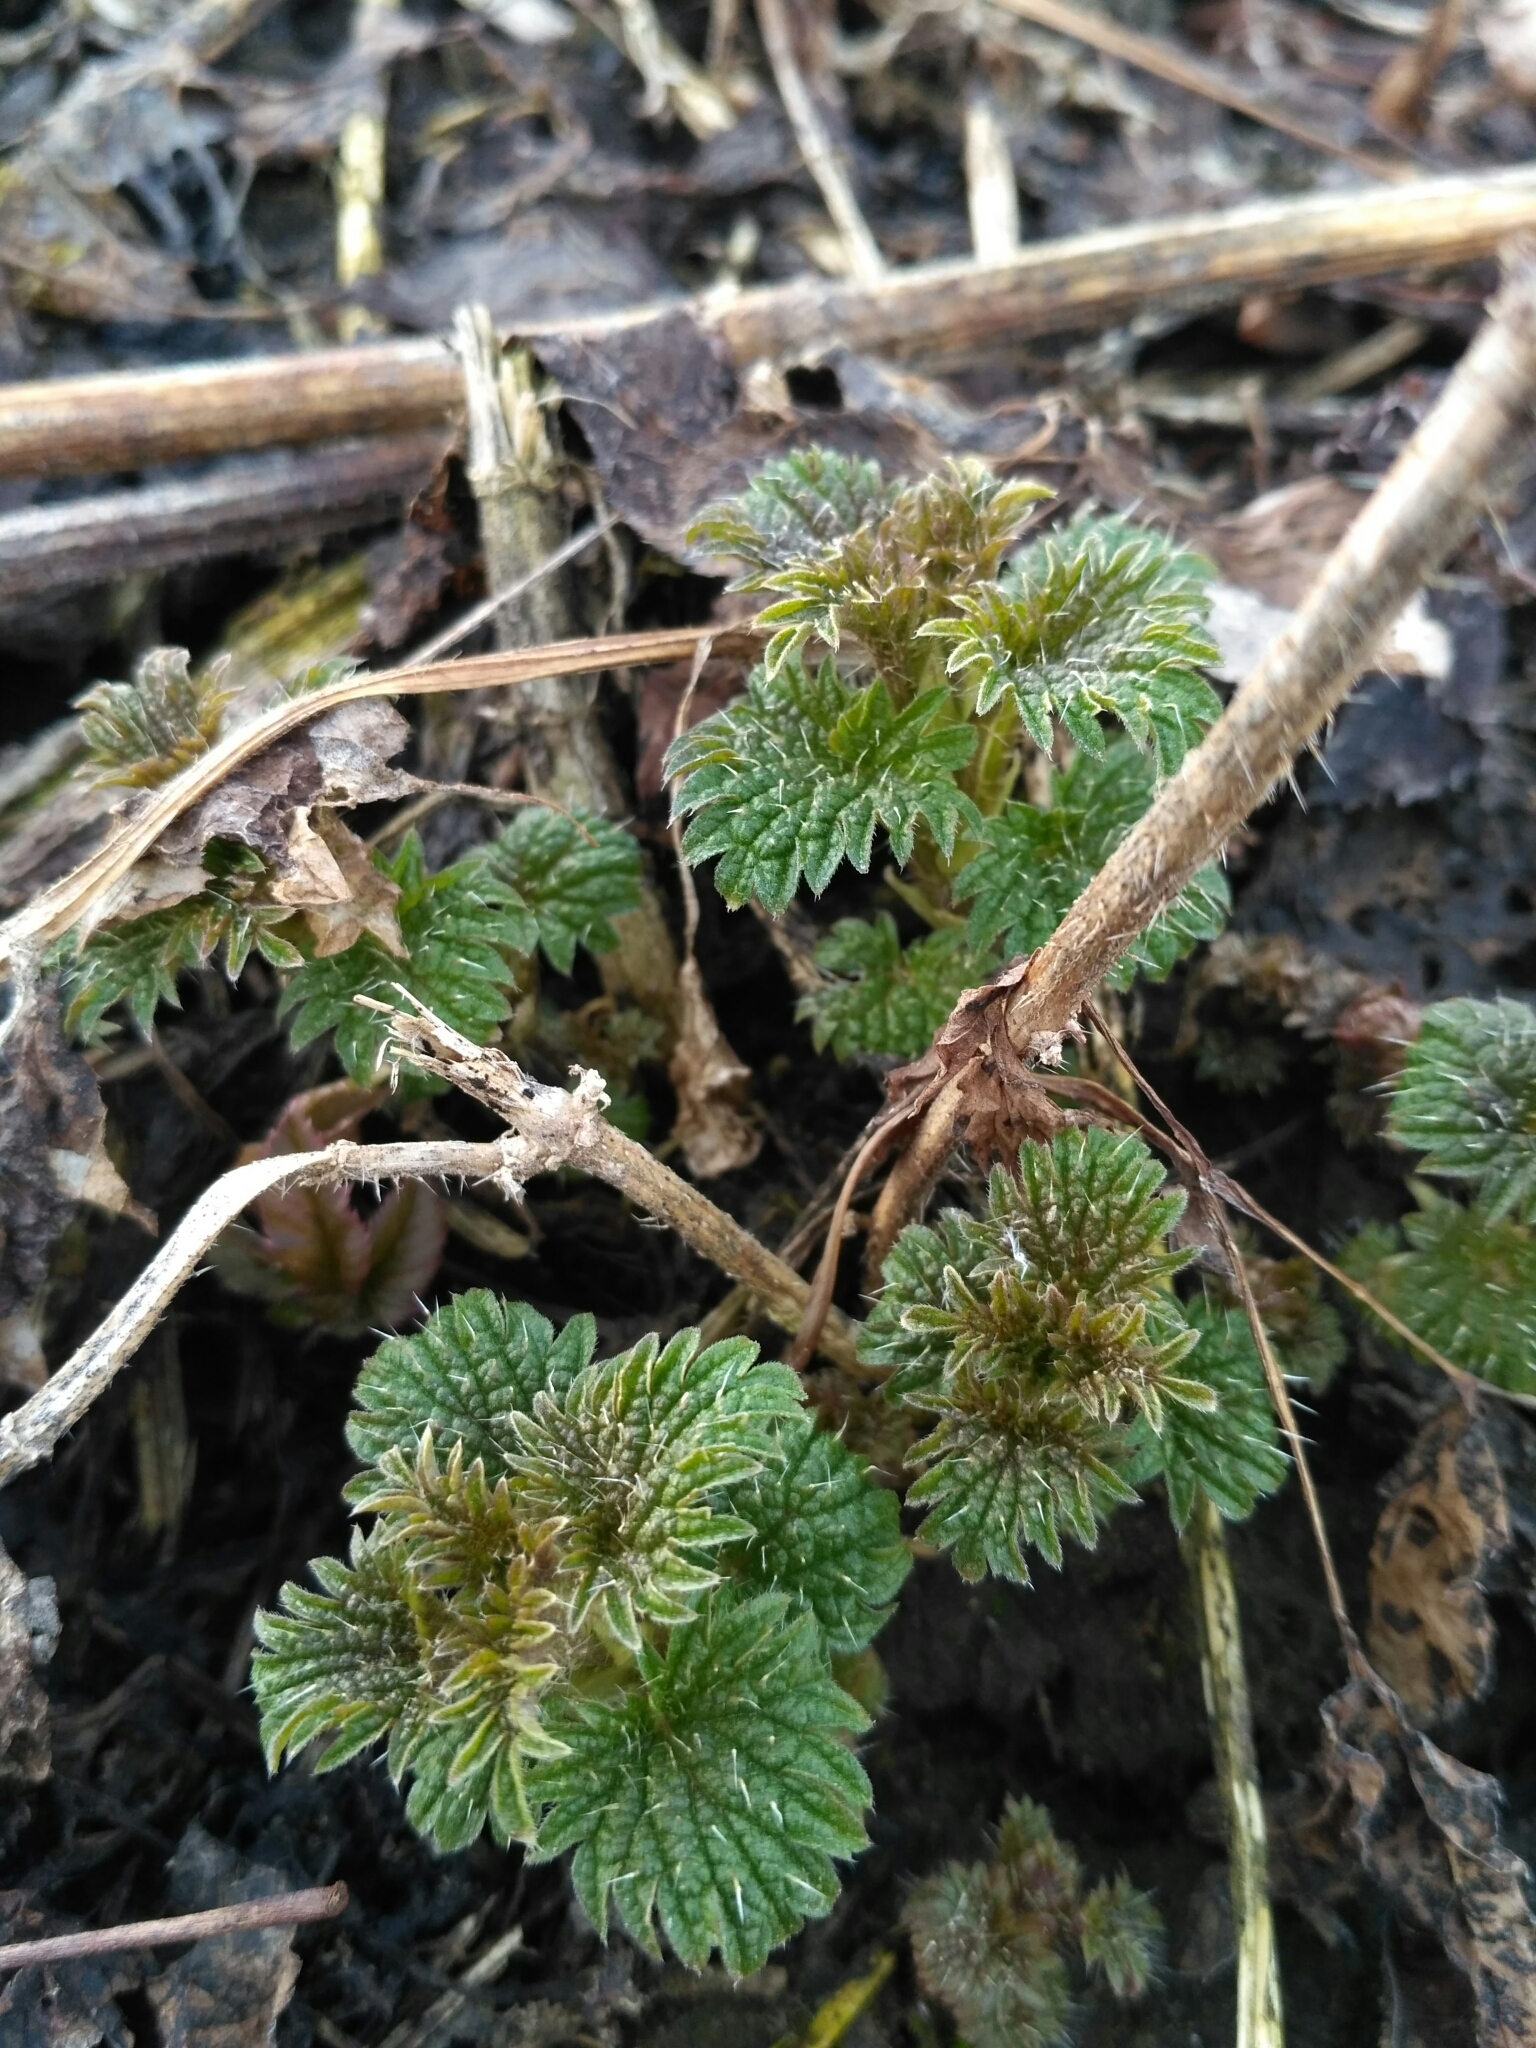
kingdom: Plantae
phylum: Tracheophyta
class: Magnoliopsida
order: Rosales
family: Urticaceae
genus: Urtica
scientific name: Urtica dioica
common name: Common nettle
